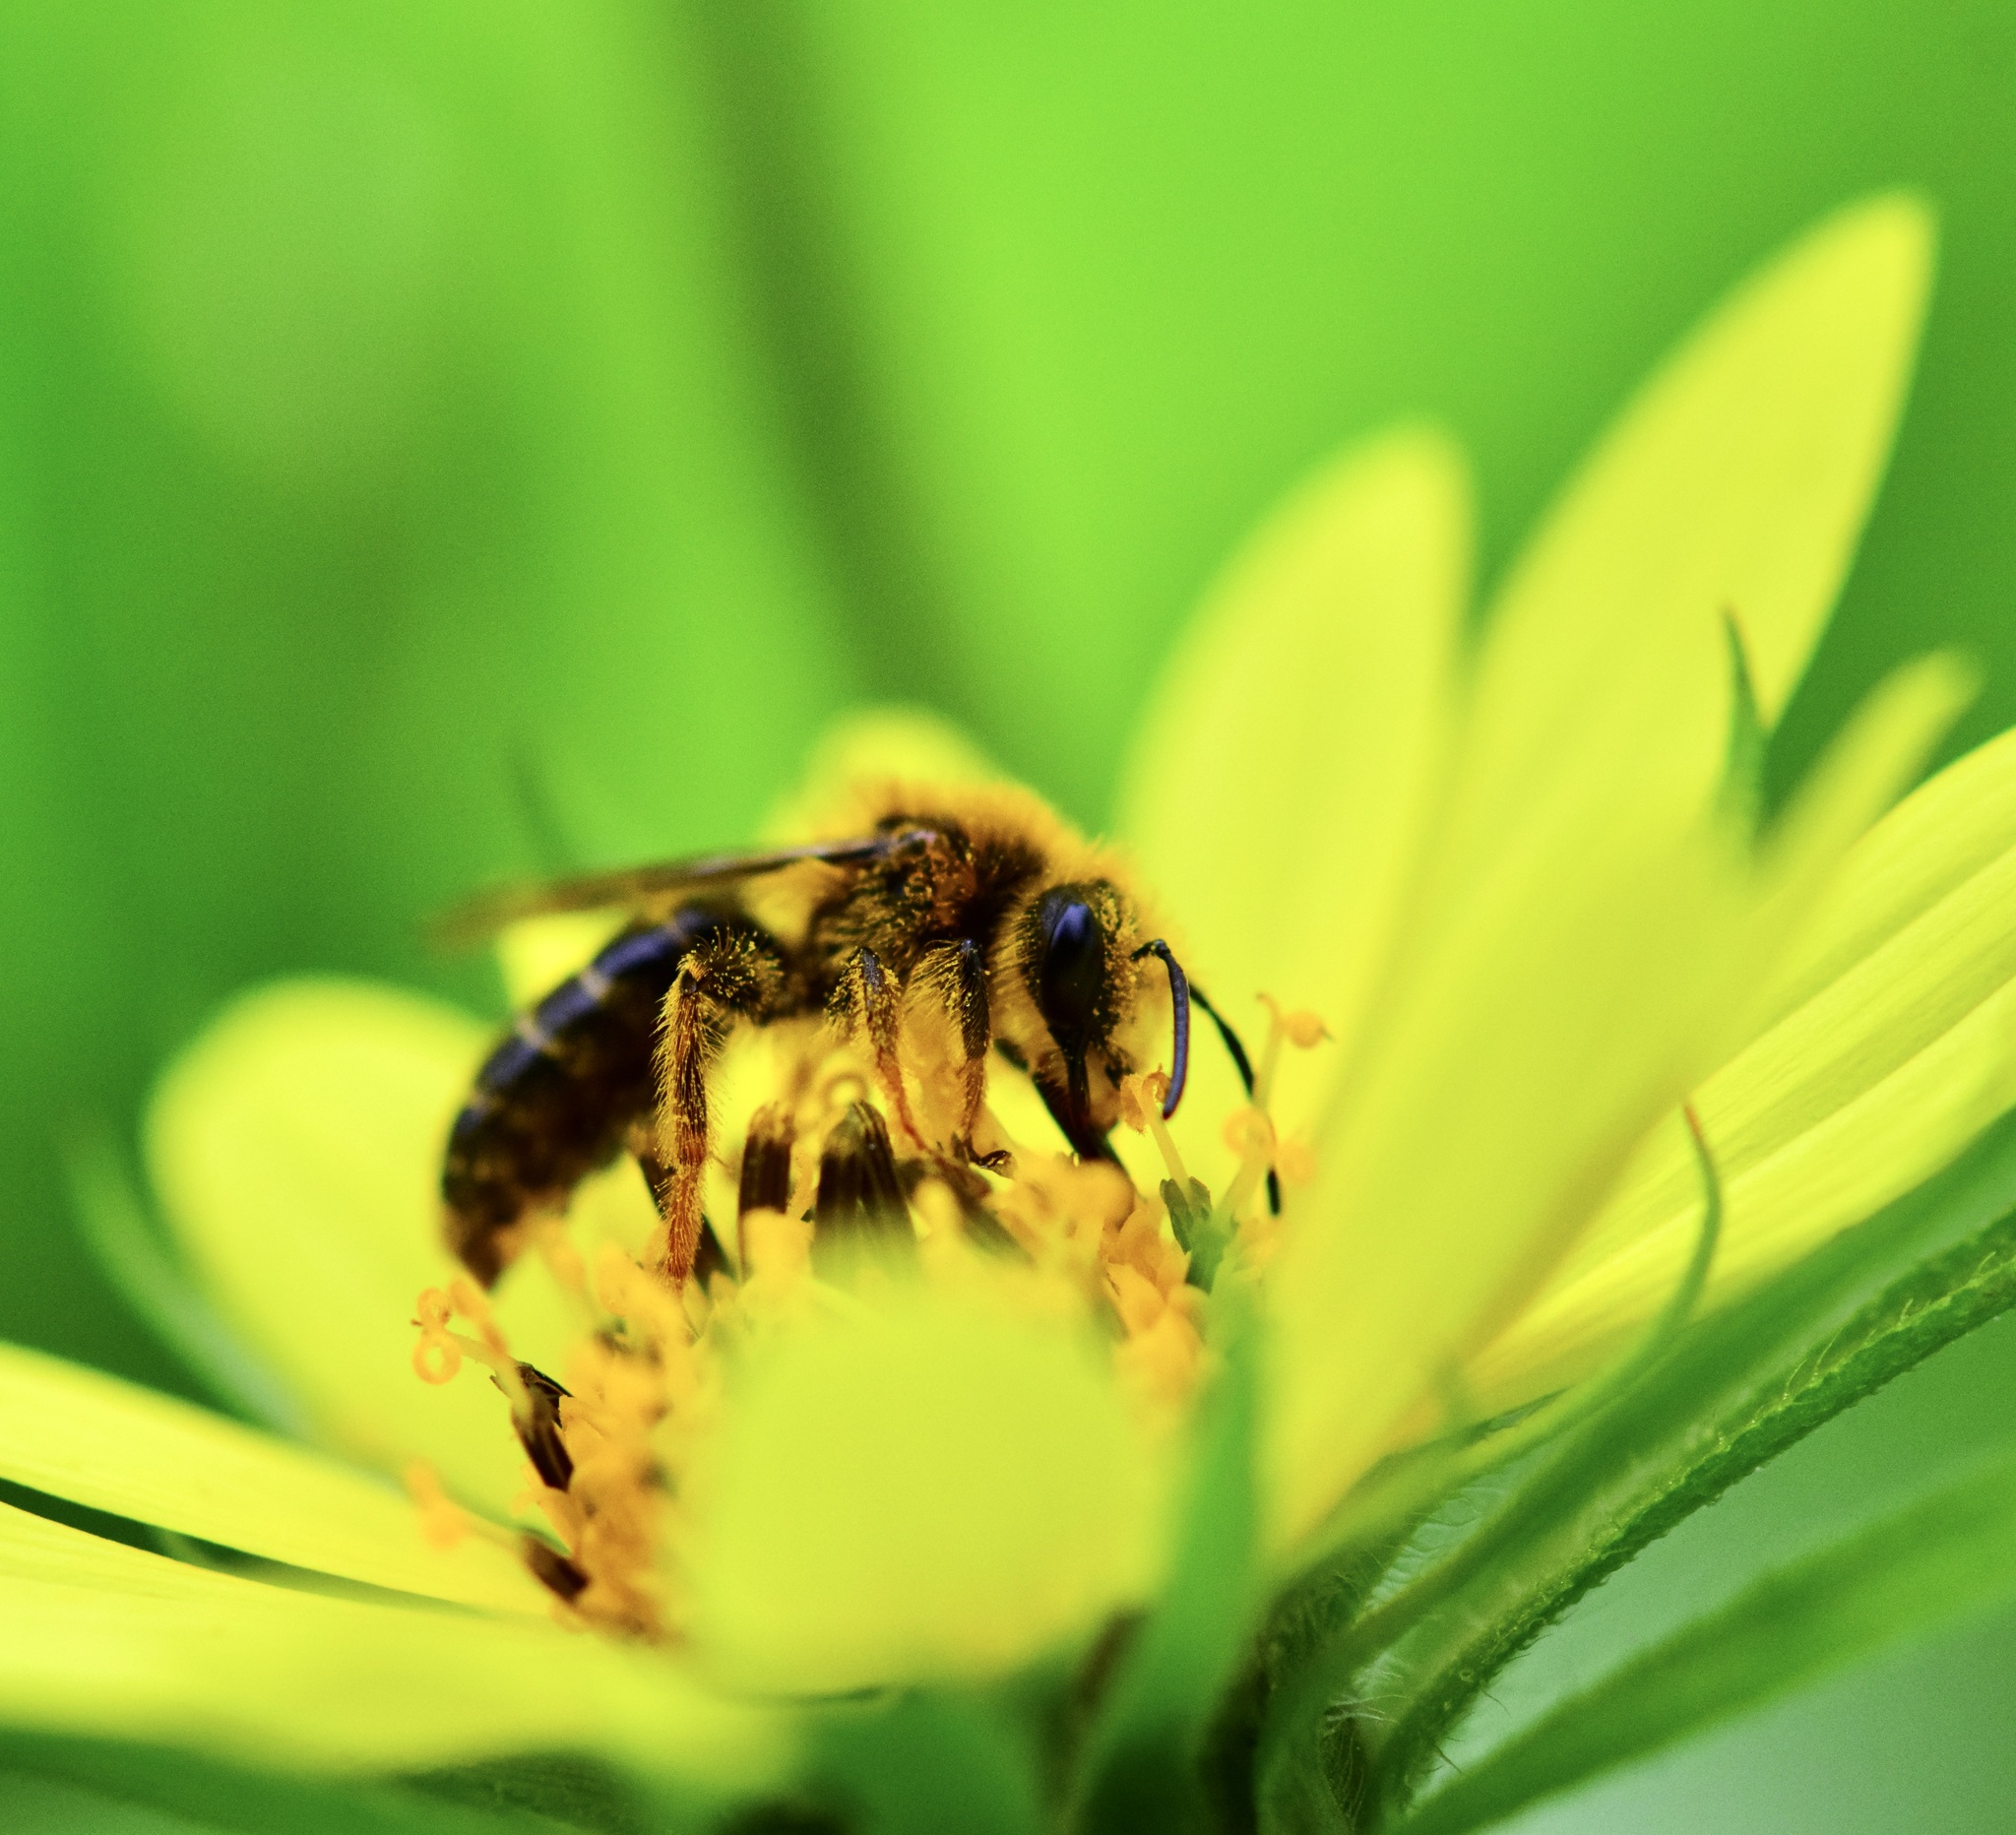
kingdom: Animalia
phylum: Arthropoda
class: Insecta
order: Hymenoptera
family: Andrenidae
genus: Andrena
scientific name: Andrena helianthi
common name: Sunflower mining bee
